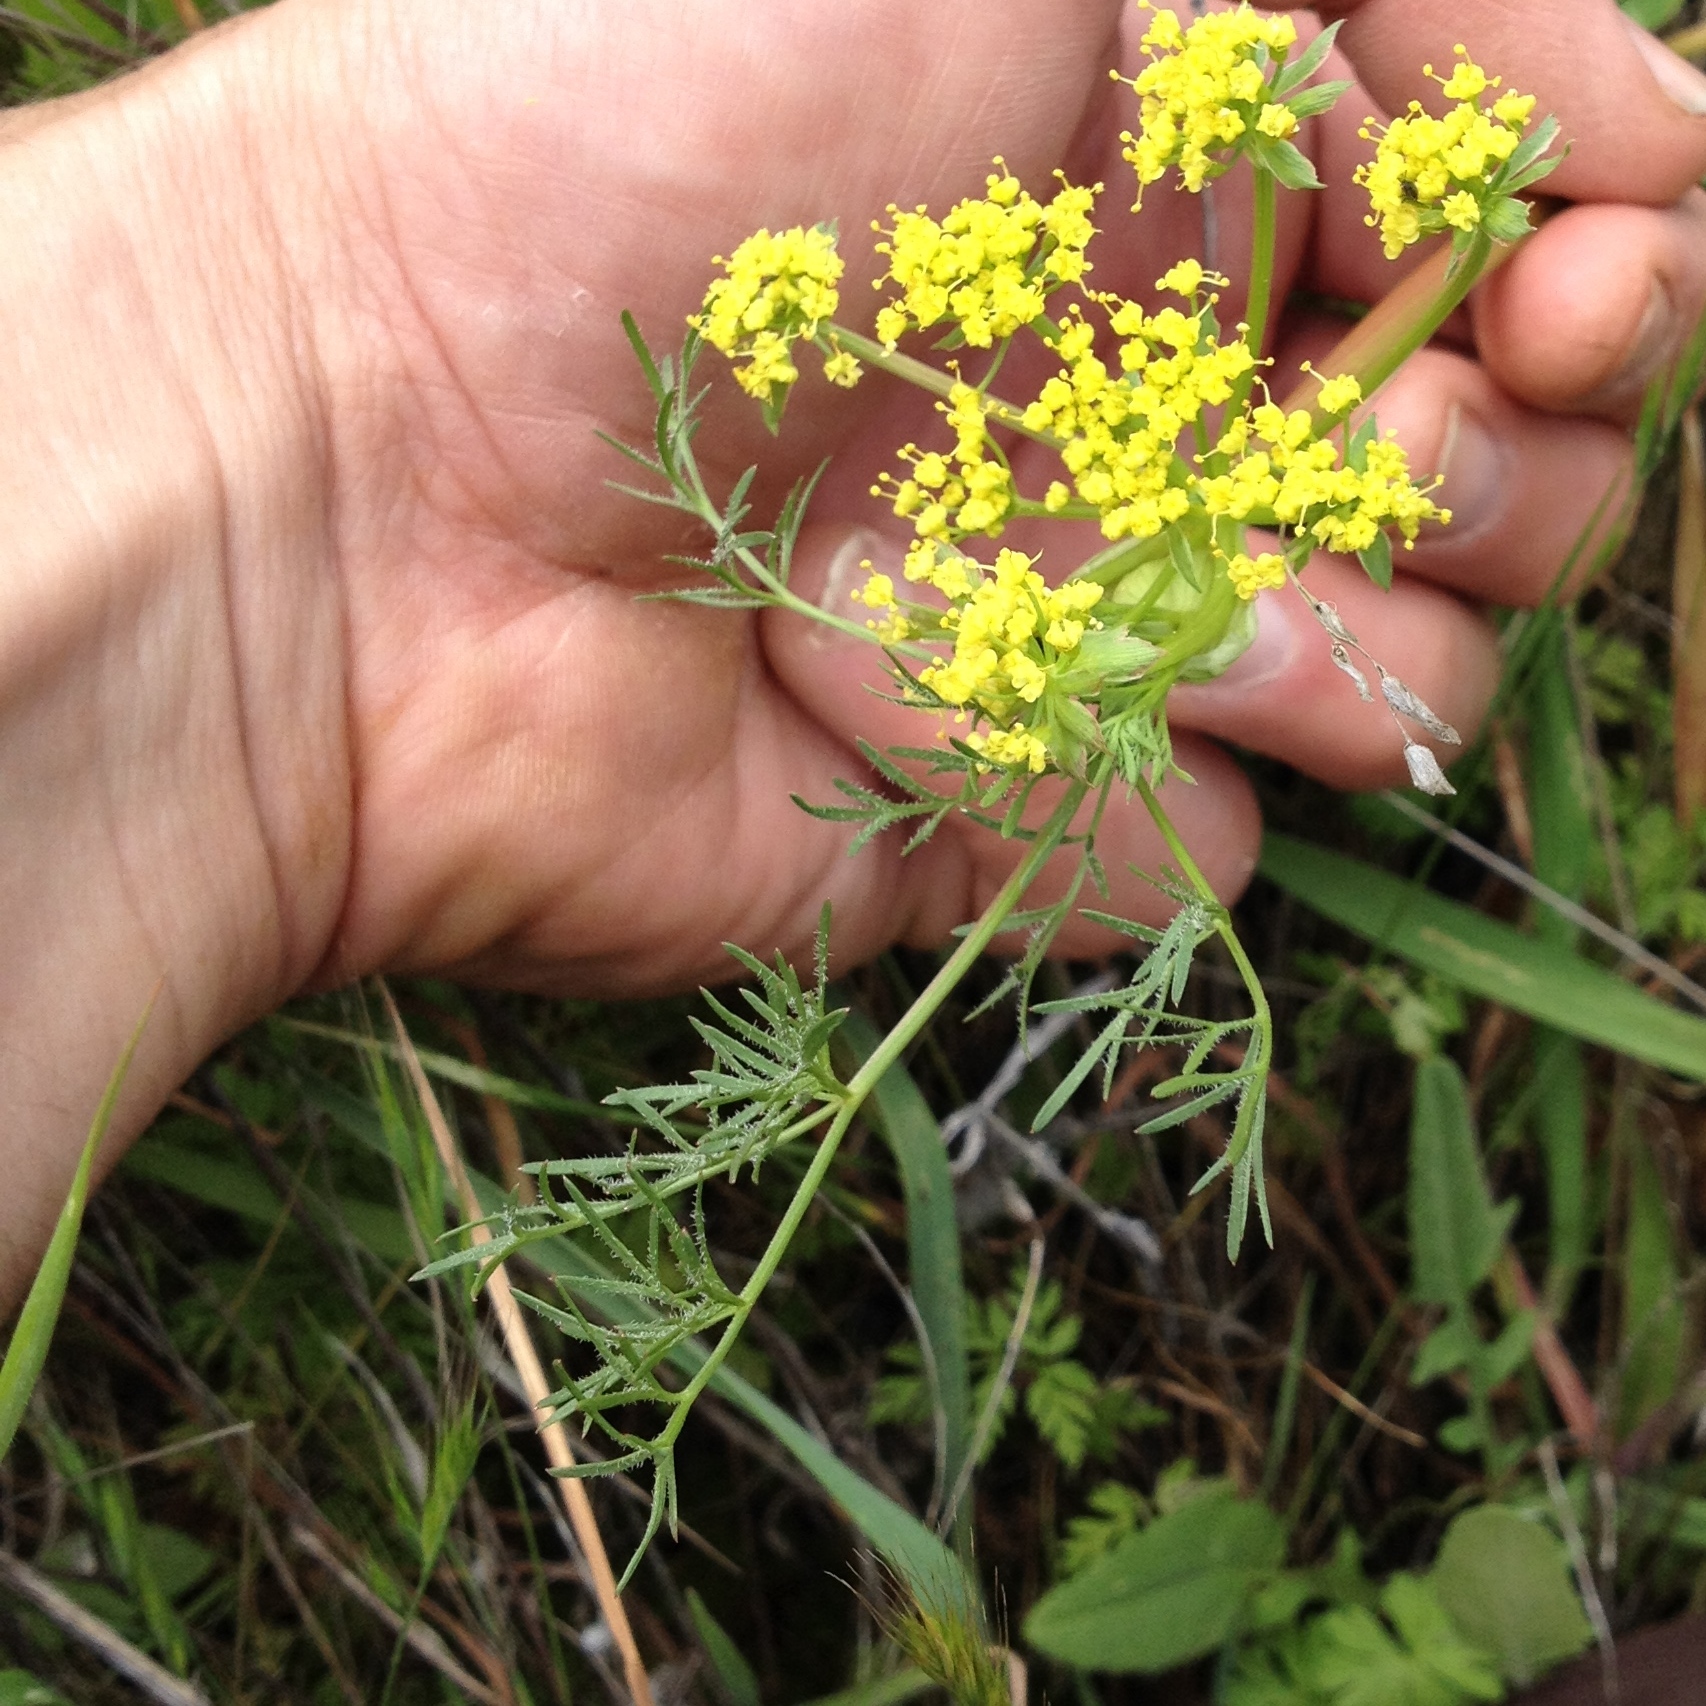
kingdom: Plantae
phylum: Tracheophyta
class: Magnoliopsida
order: Apiales
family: Apiaceae
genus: Lomatium
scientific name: Lomatium utriculatum
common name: Fine-leaf desert-parsley
